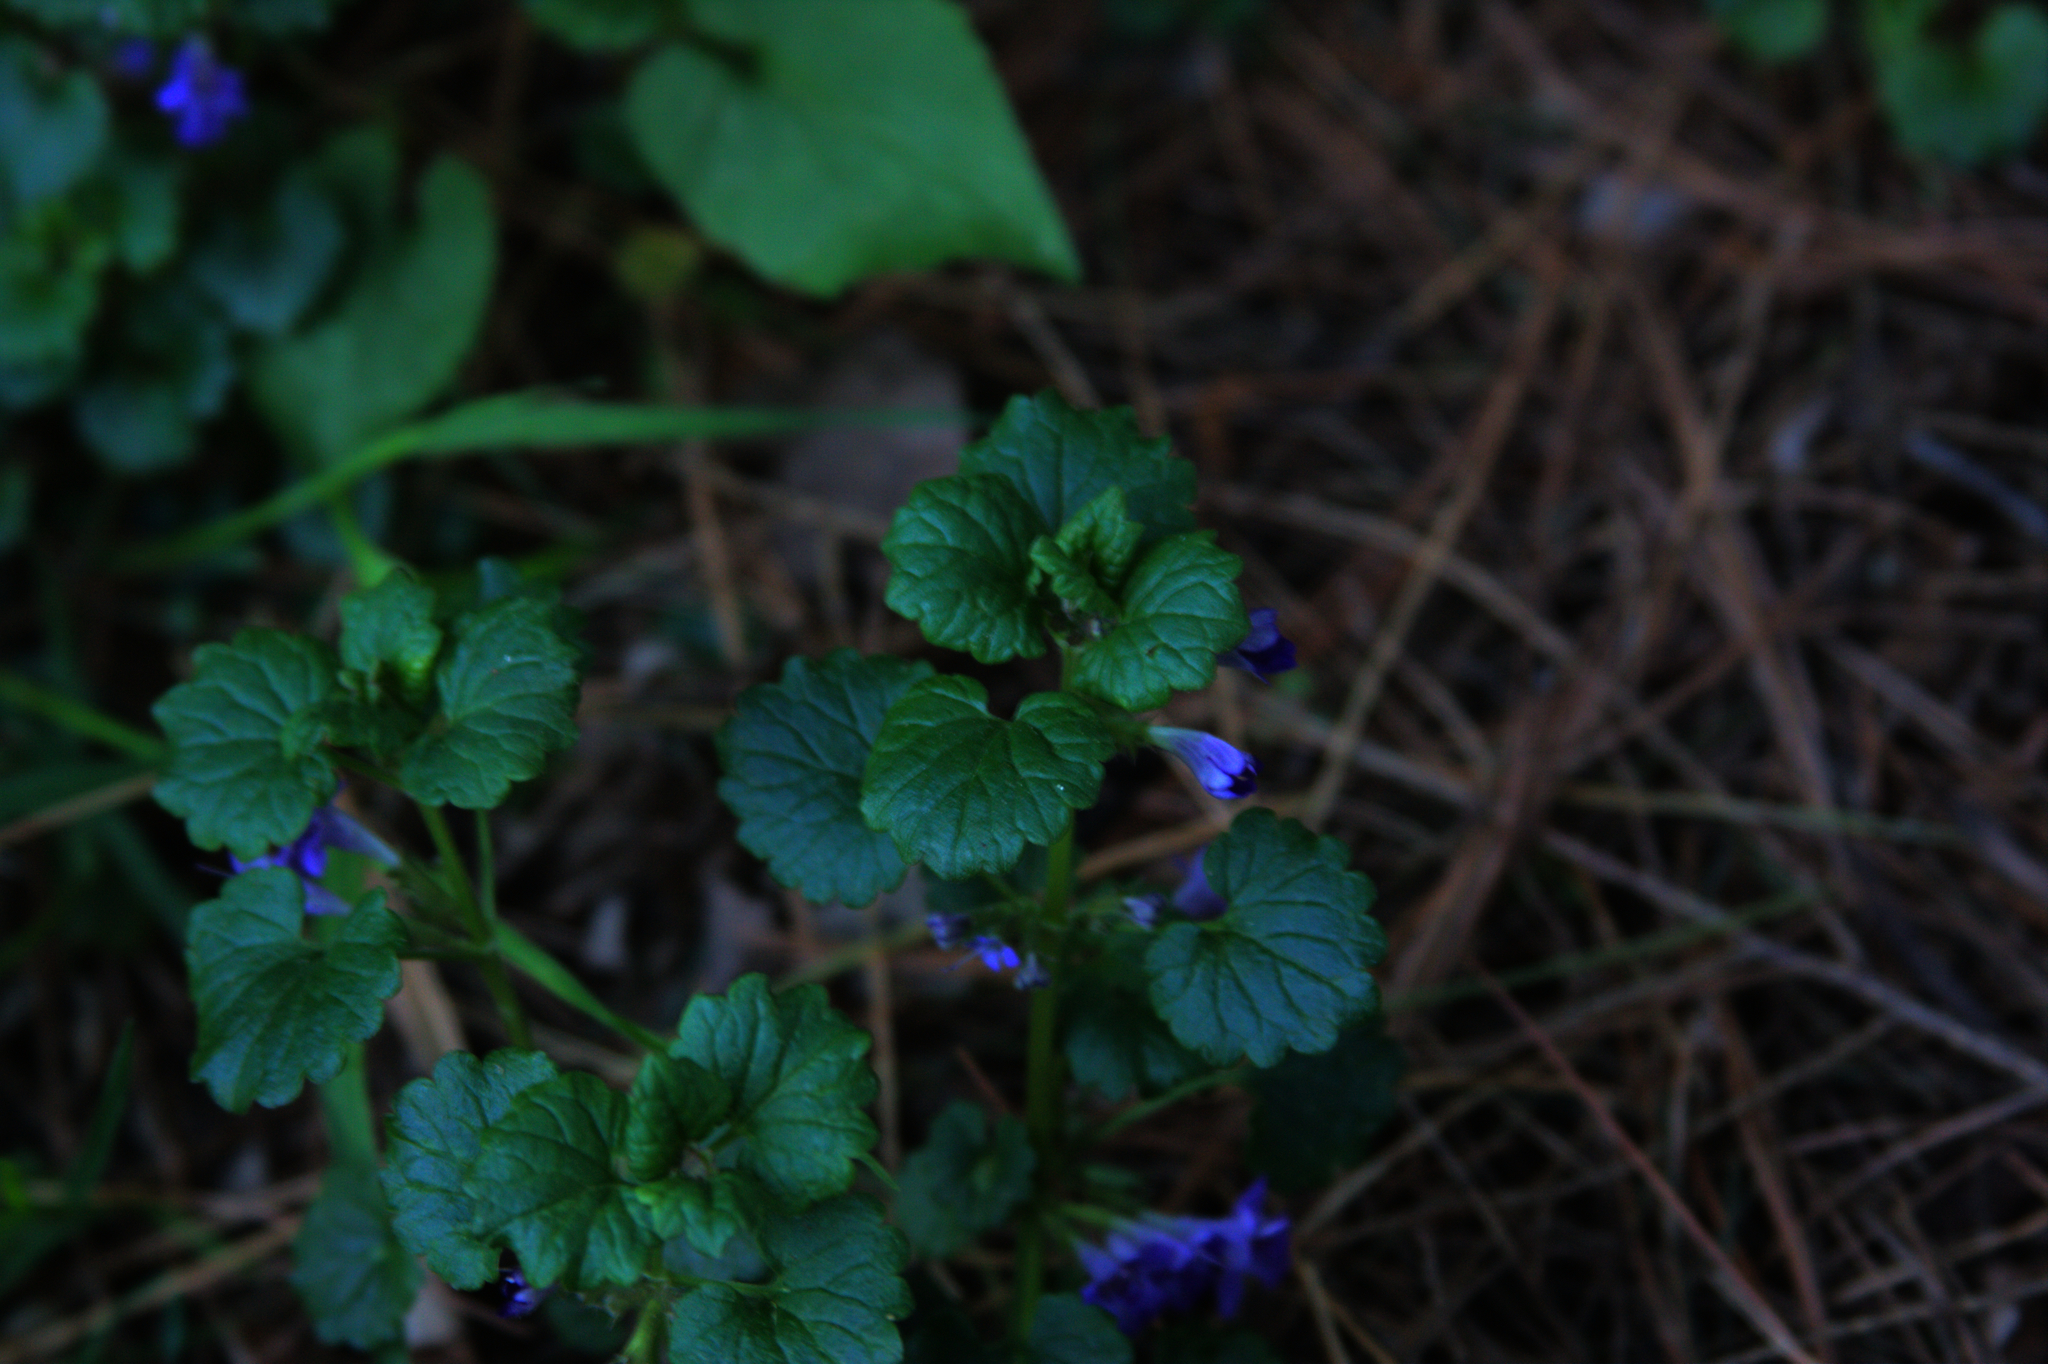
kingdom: Plantae
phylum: Tracheophyta
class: Magnoliopsida
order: Lamiales
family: Lamiaceae
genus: Glechoma
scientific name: Glechoma hederacea
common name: Ground ivy
